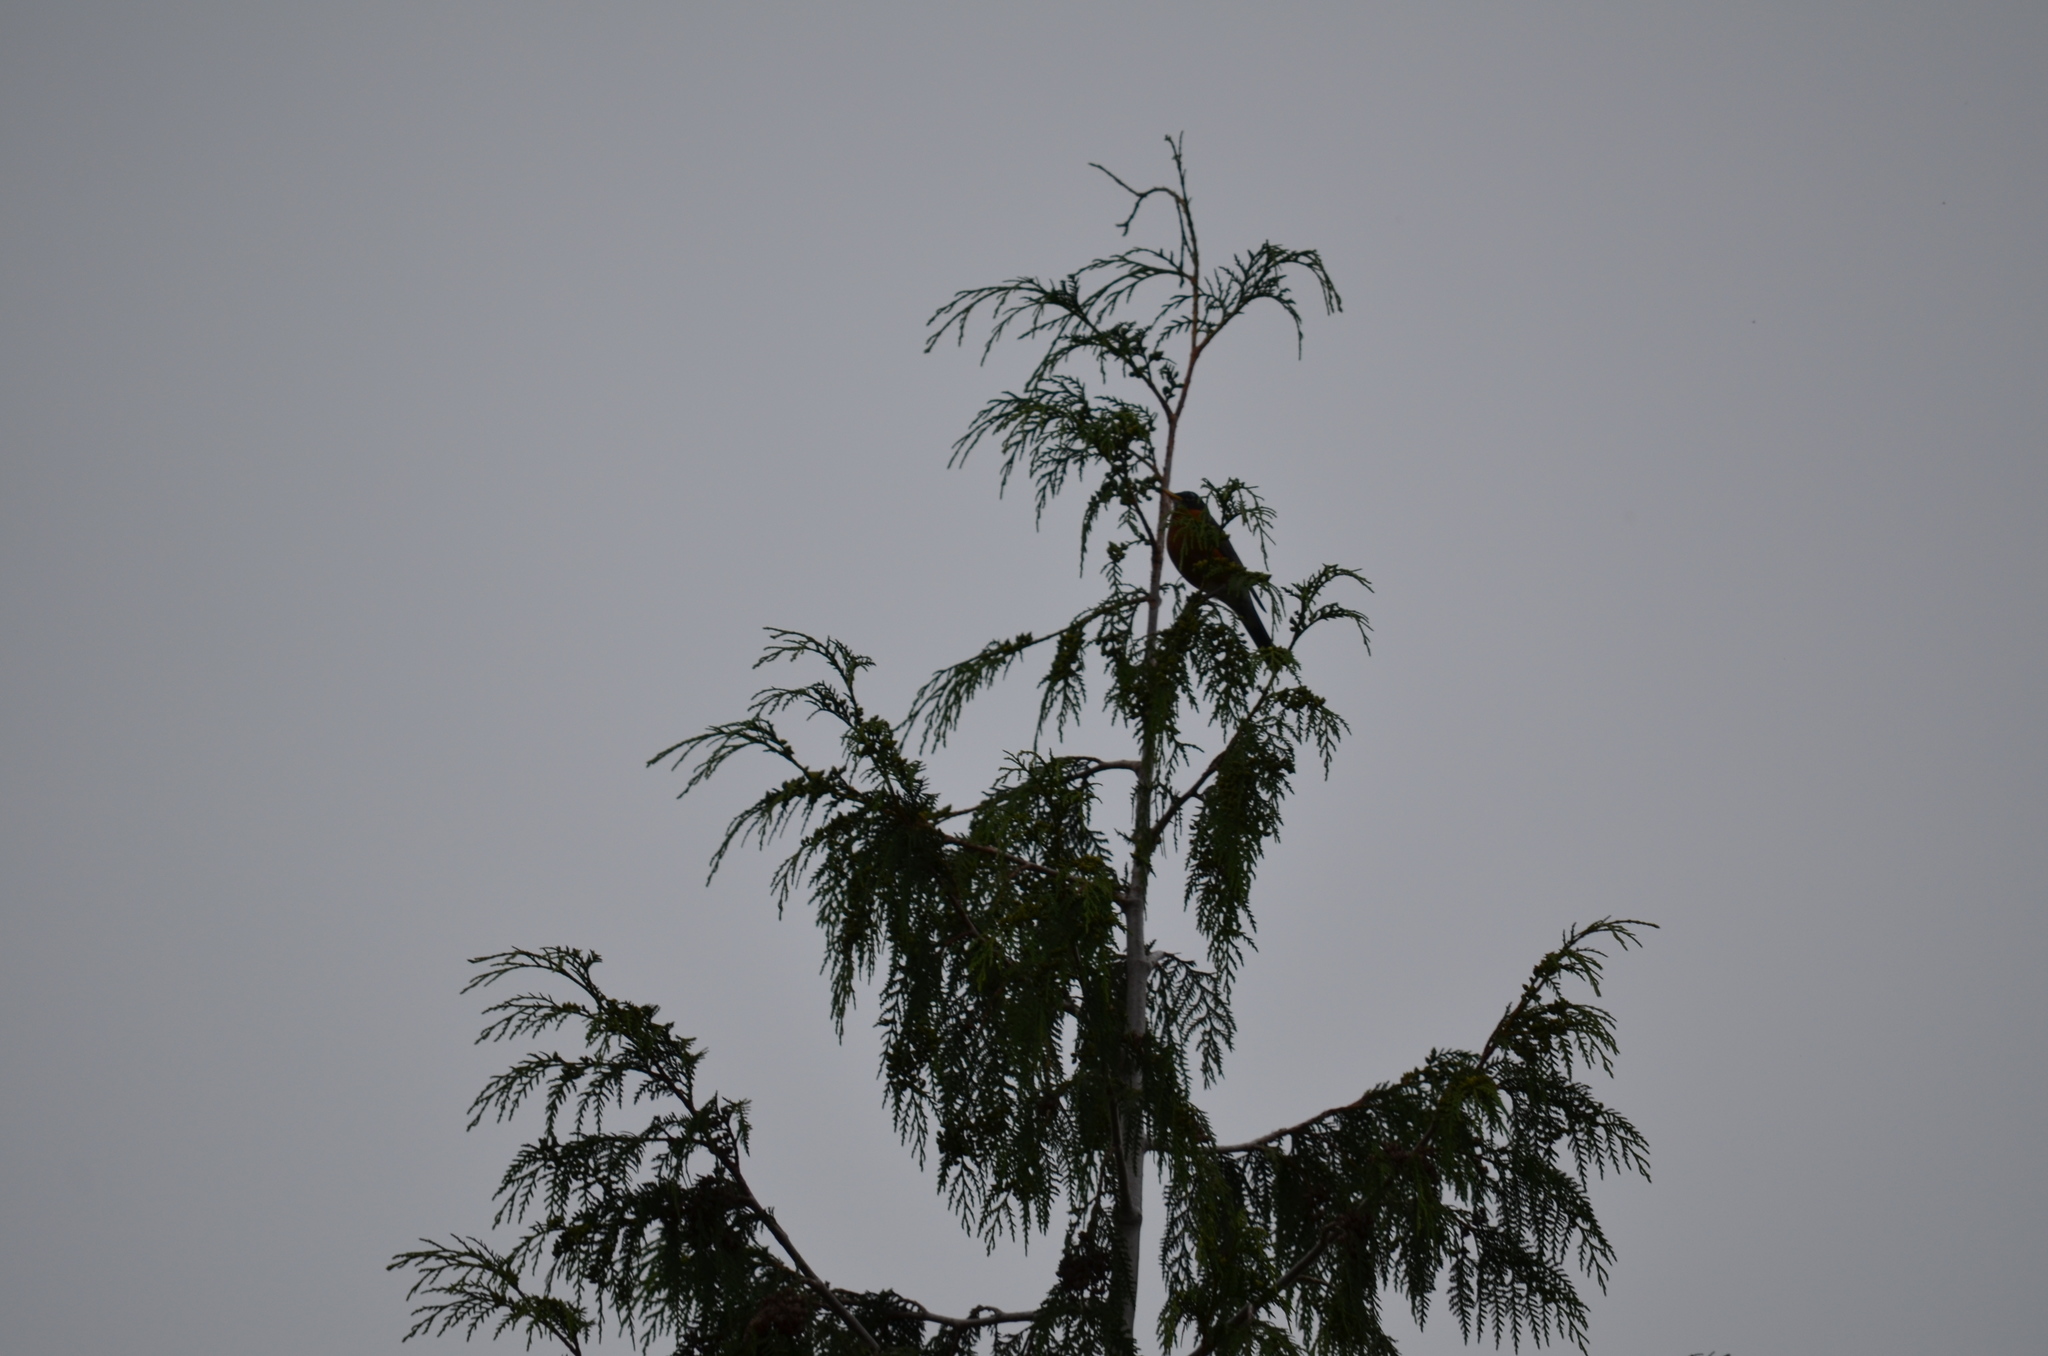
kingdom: Animalia
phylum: Chordata
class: Aves
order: Passeriformes
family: Turdidae
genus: Turdus
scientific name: Turdus migratorius
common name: American robin
